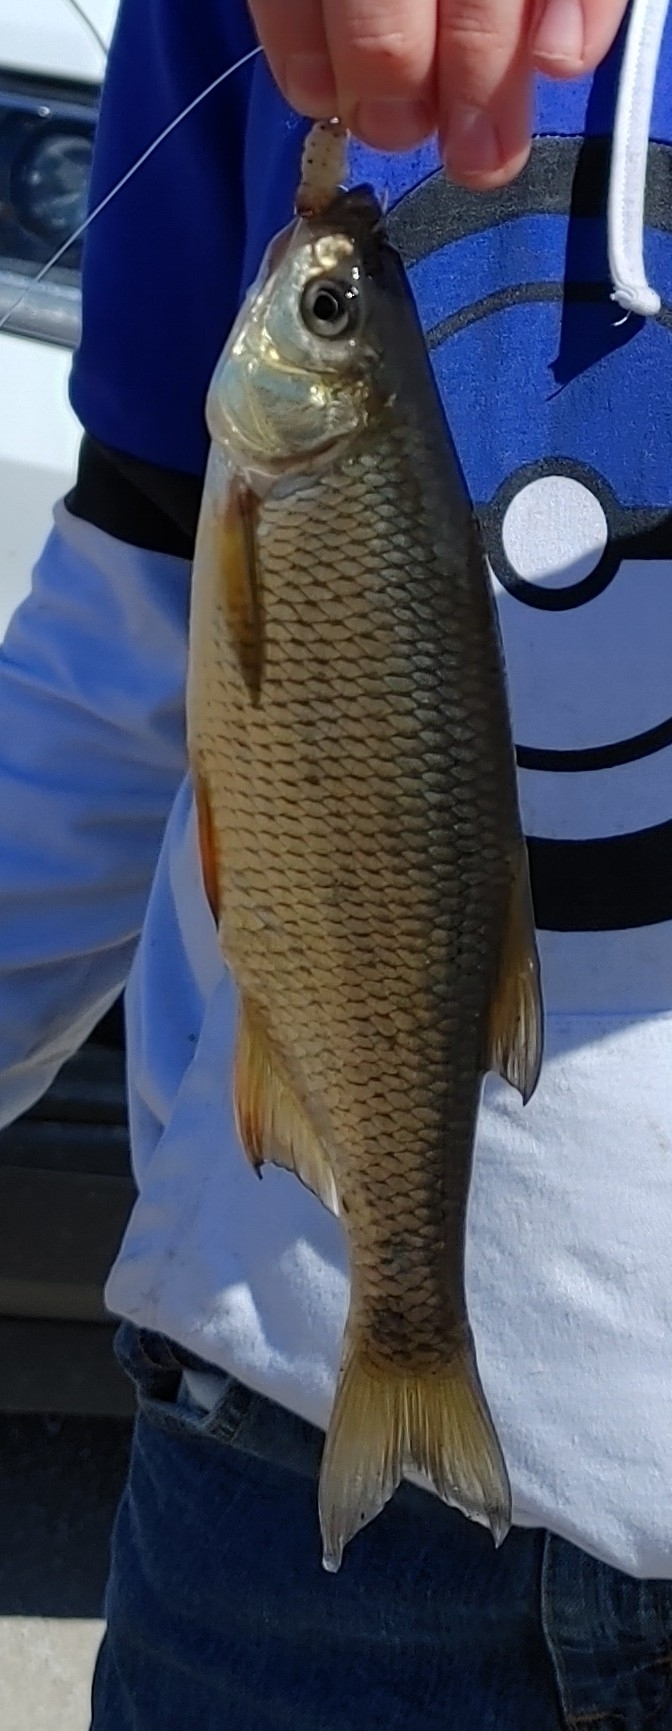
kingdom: Animalia
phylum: Chordata
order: Cypriniformes
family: Cyprinidae
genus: Notemigonus
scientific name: Notemigonus crysoleucas
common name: Golden shiner
